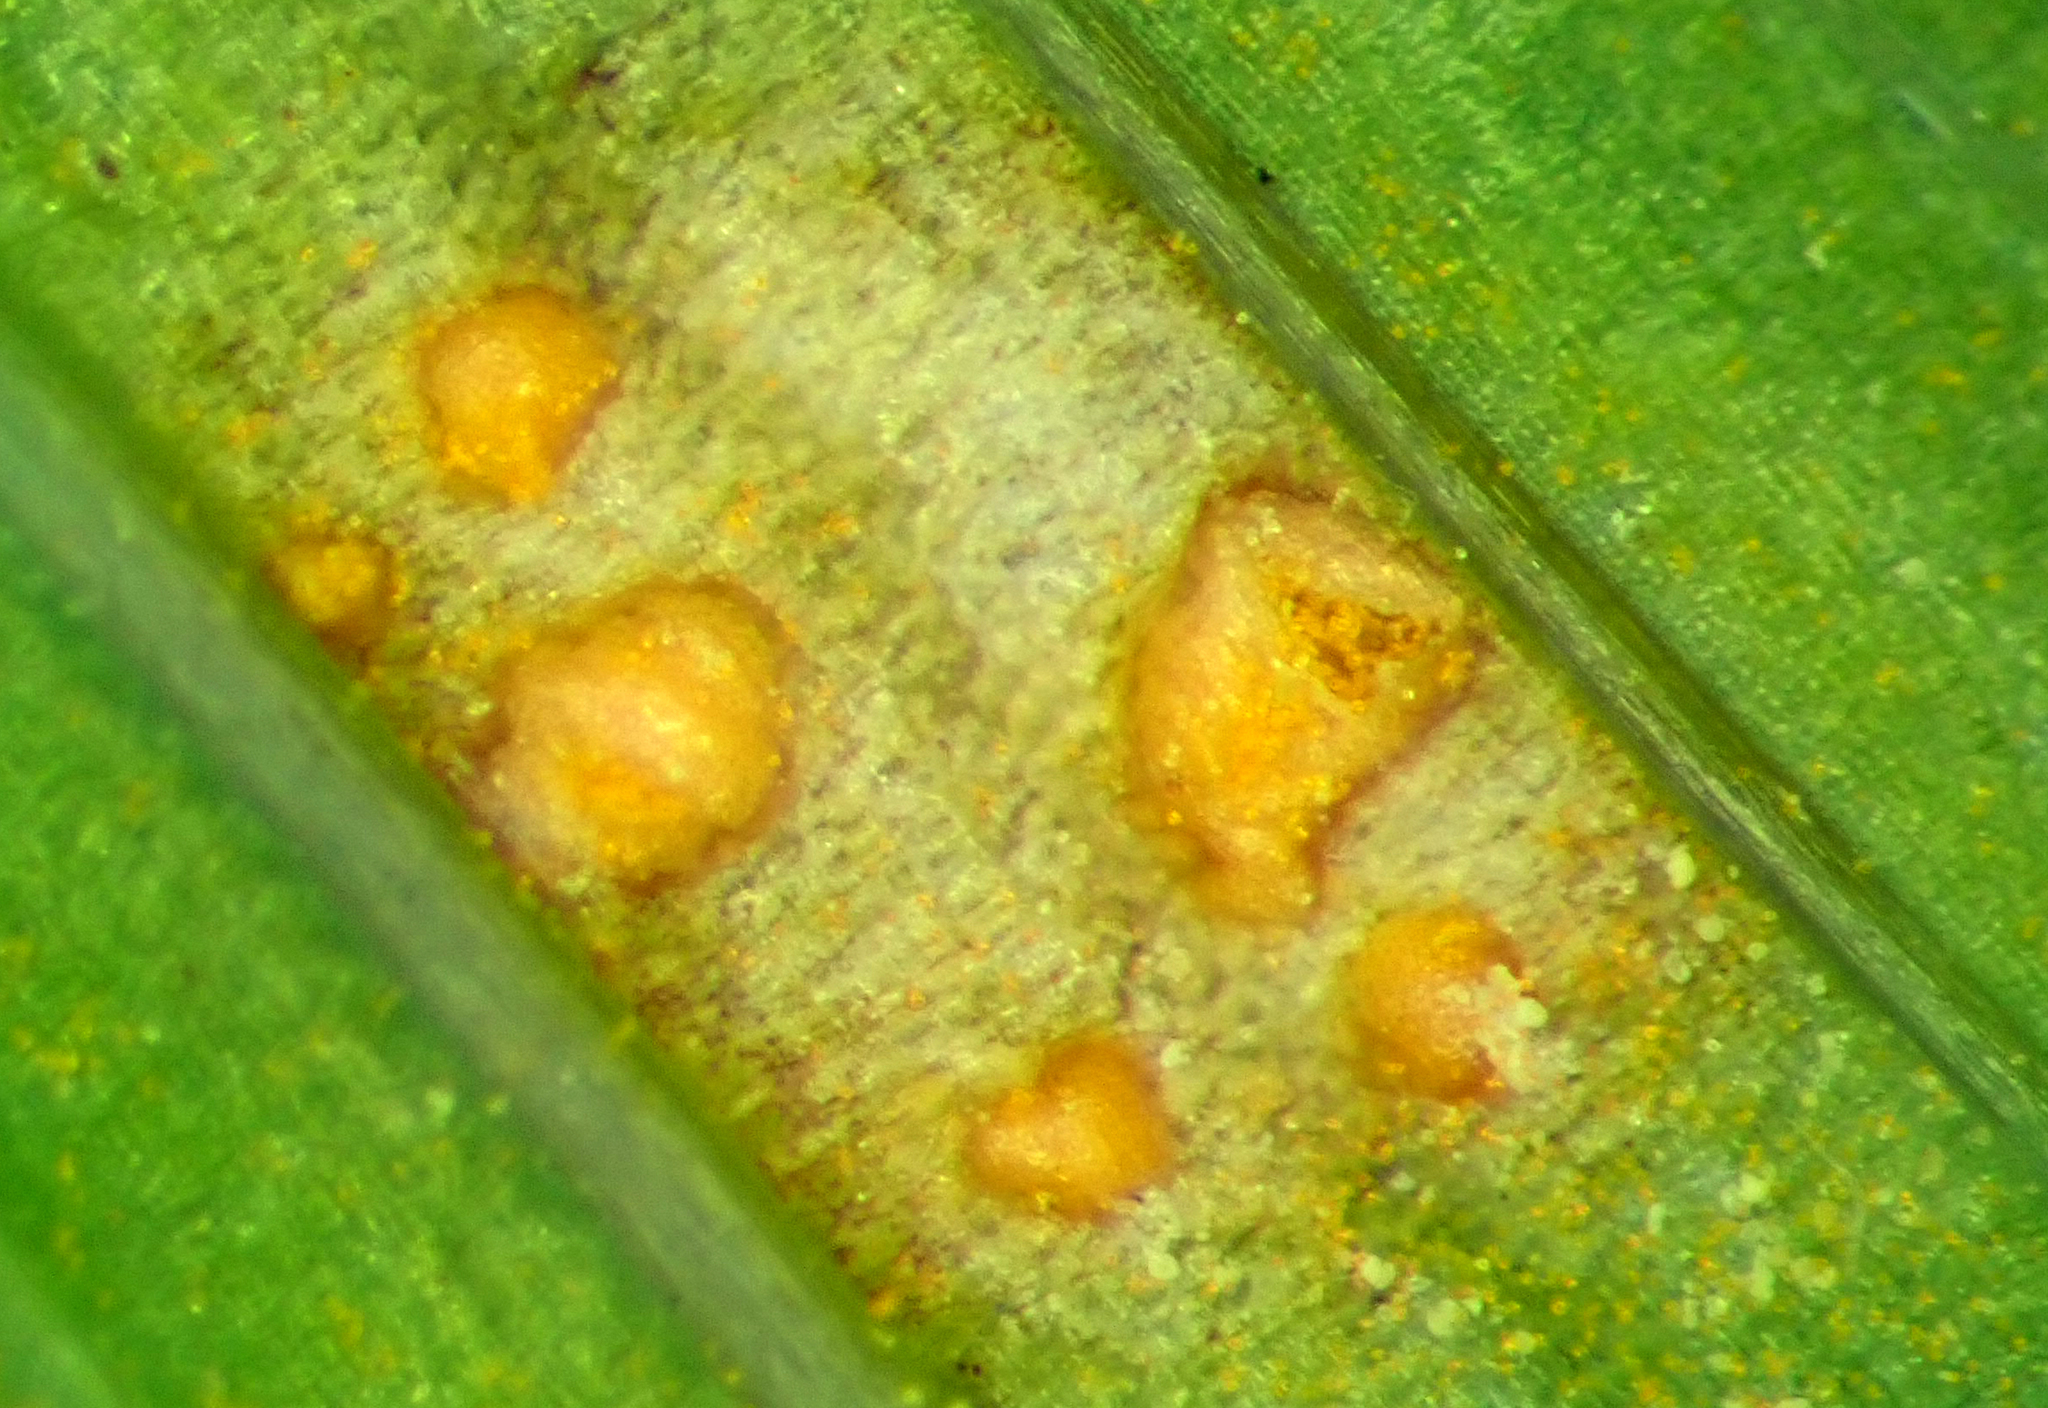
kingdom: Fungi
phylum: Basidiomycota
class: Pucciniomycetes
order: Pucciniales
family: Pucciniaceae
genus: Uromyces
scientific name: Uromyces transversalis
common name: Rust of gladiolus
